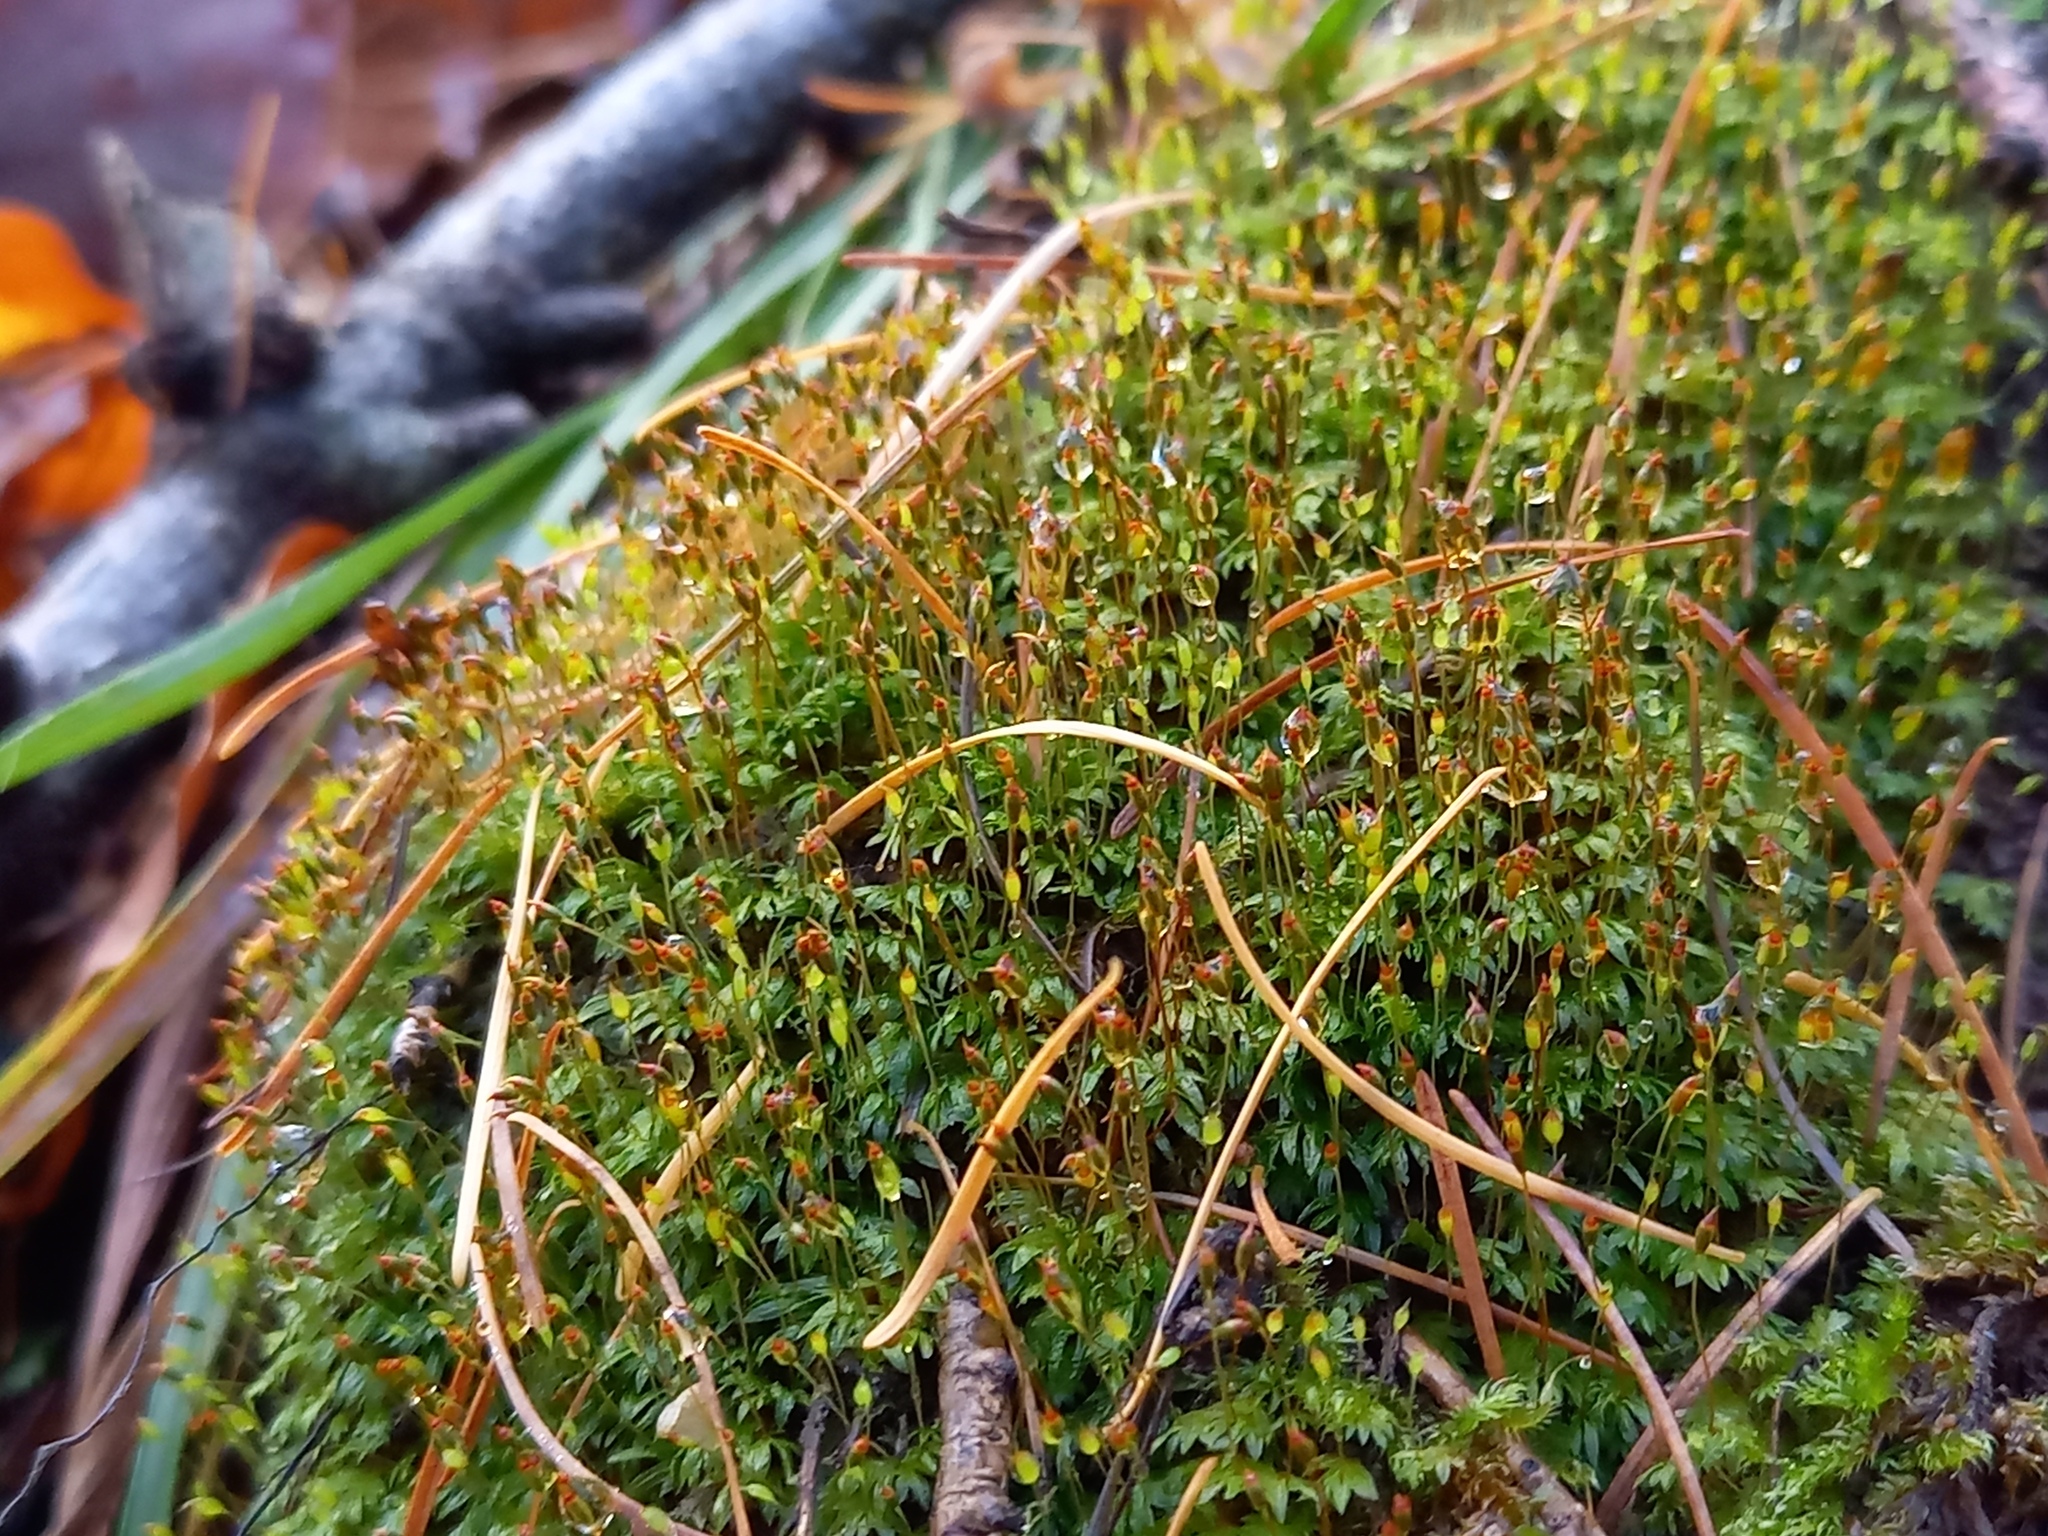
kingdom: Plantae
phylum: Bryophyta
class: Bryopsida
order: Dicranales
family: Fissidentaceae
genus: Fissidens
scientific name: Fissidens bryoides
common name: Lesser pocket moss
